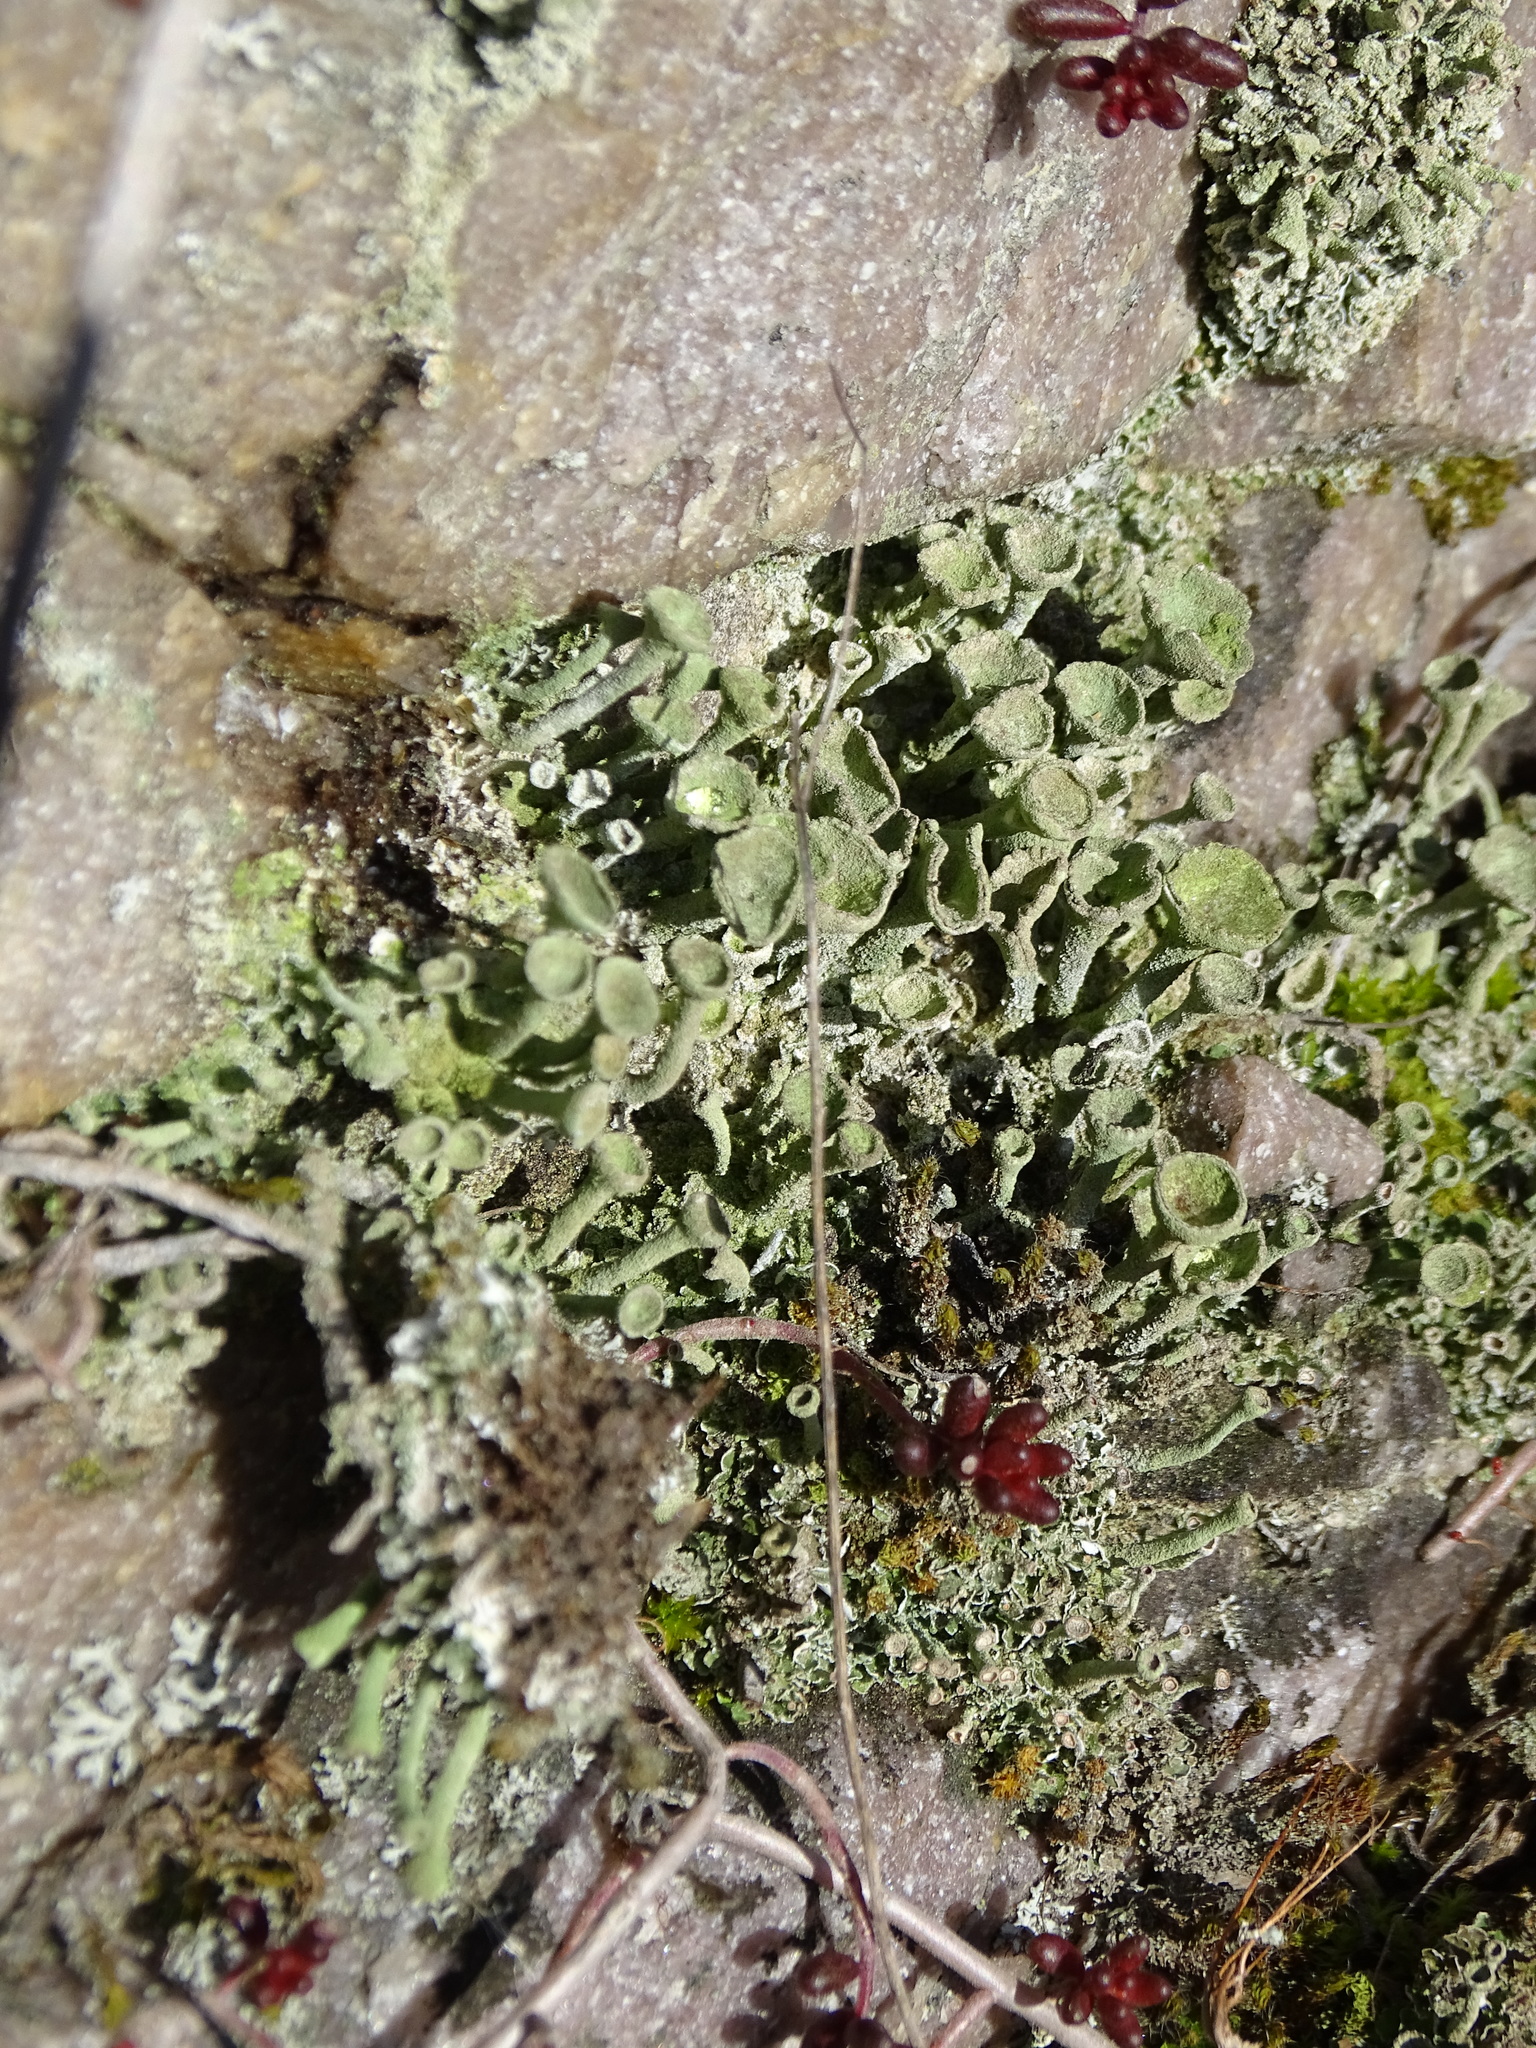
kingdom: Fungi
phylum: Ascomycota
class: Lecanoromycetes
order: Lecanorales
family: Cladoniaceae
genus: Cladonia
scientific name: Cladonia
